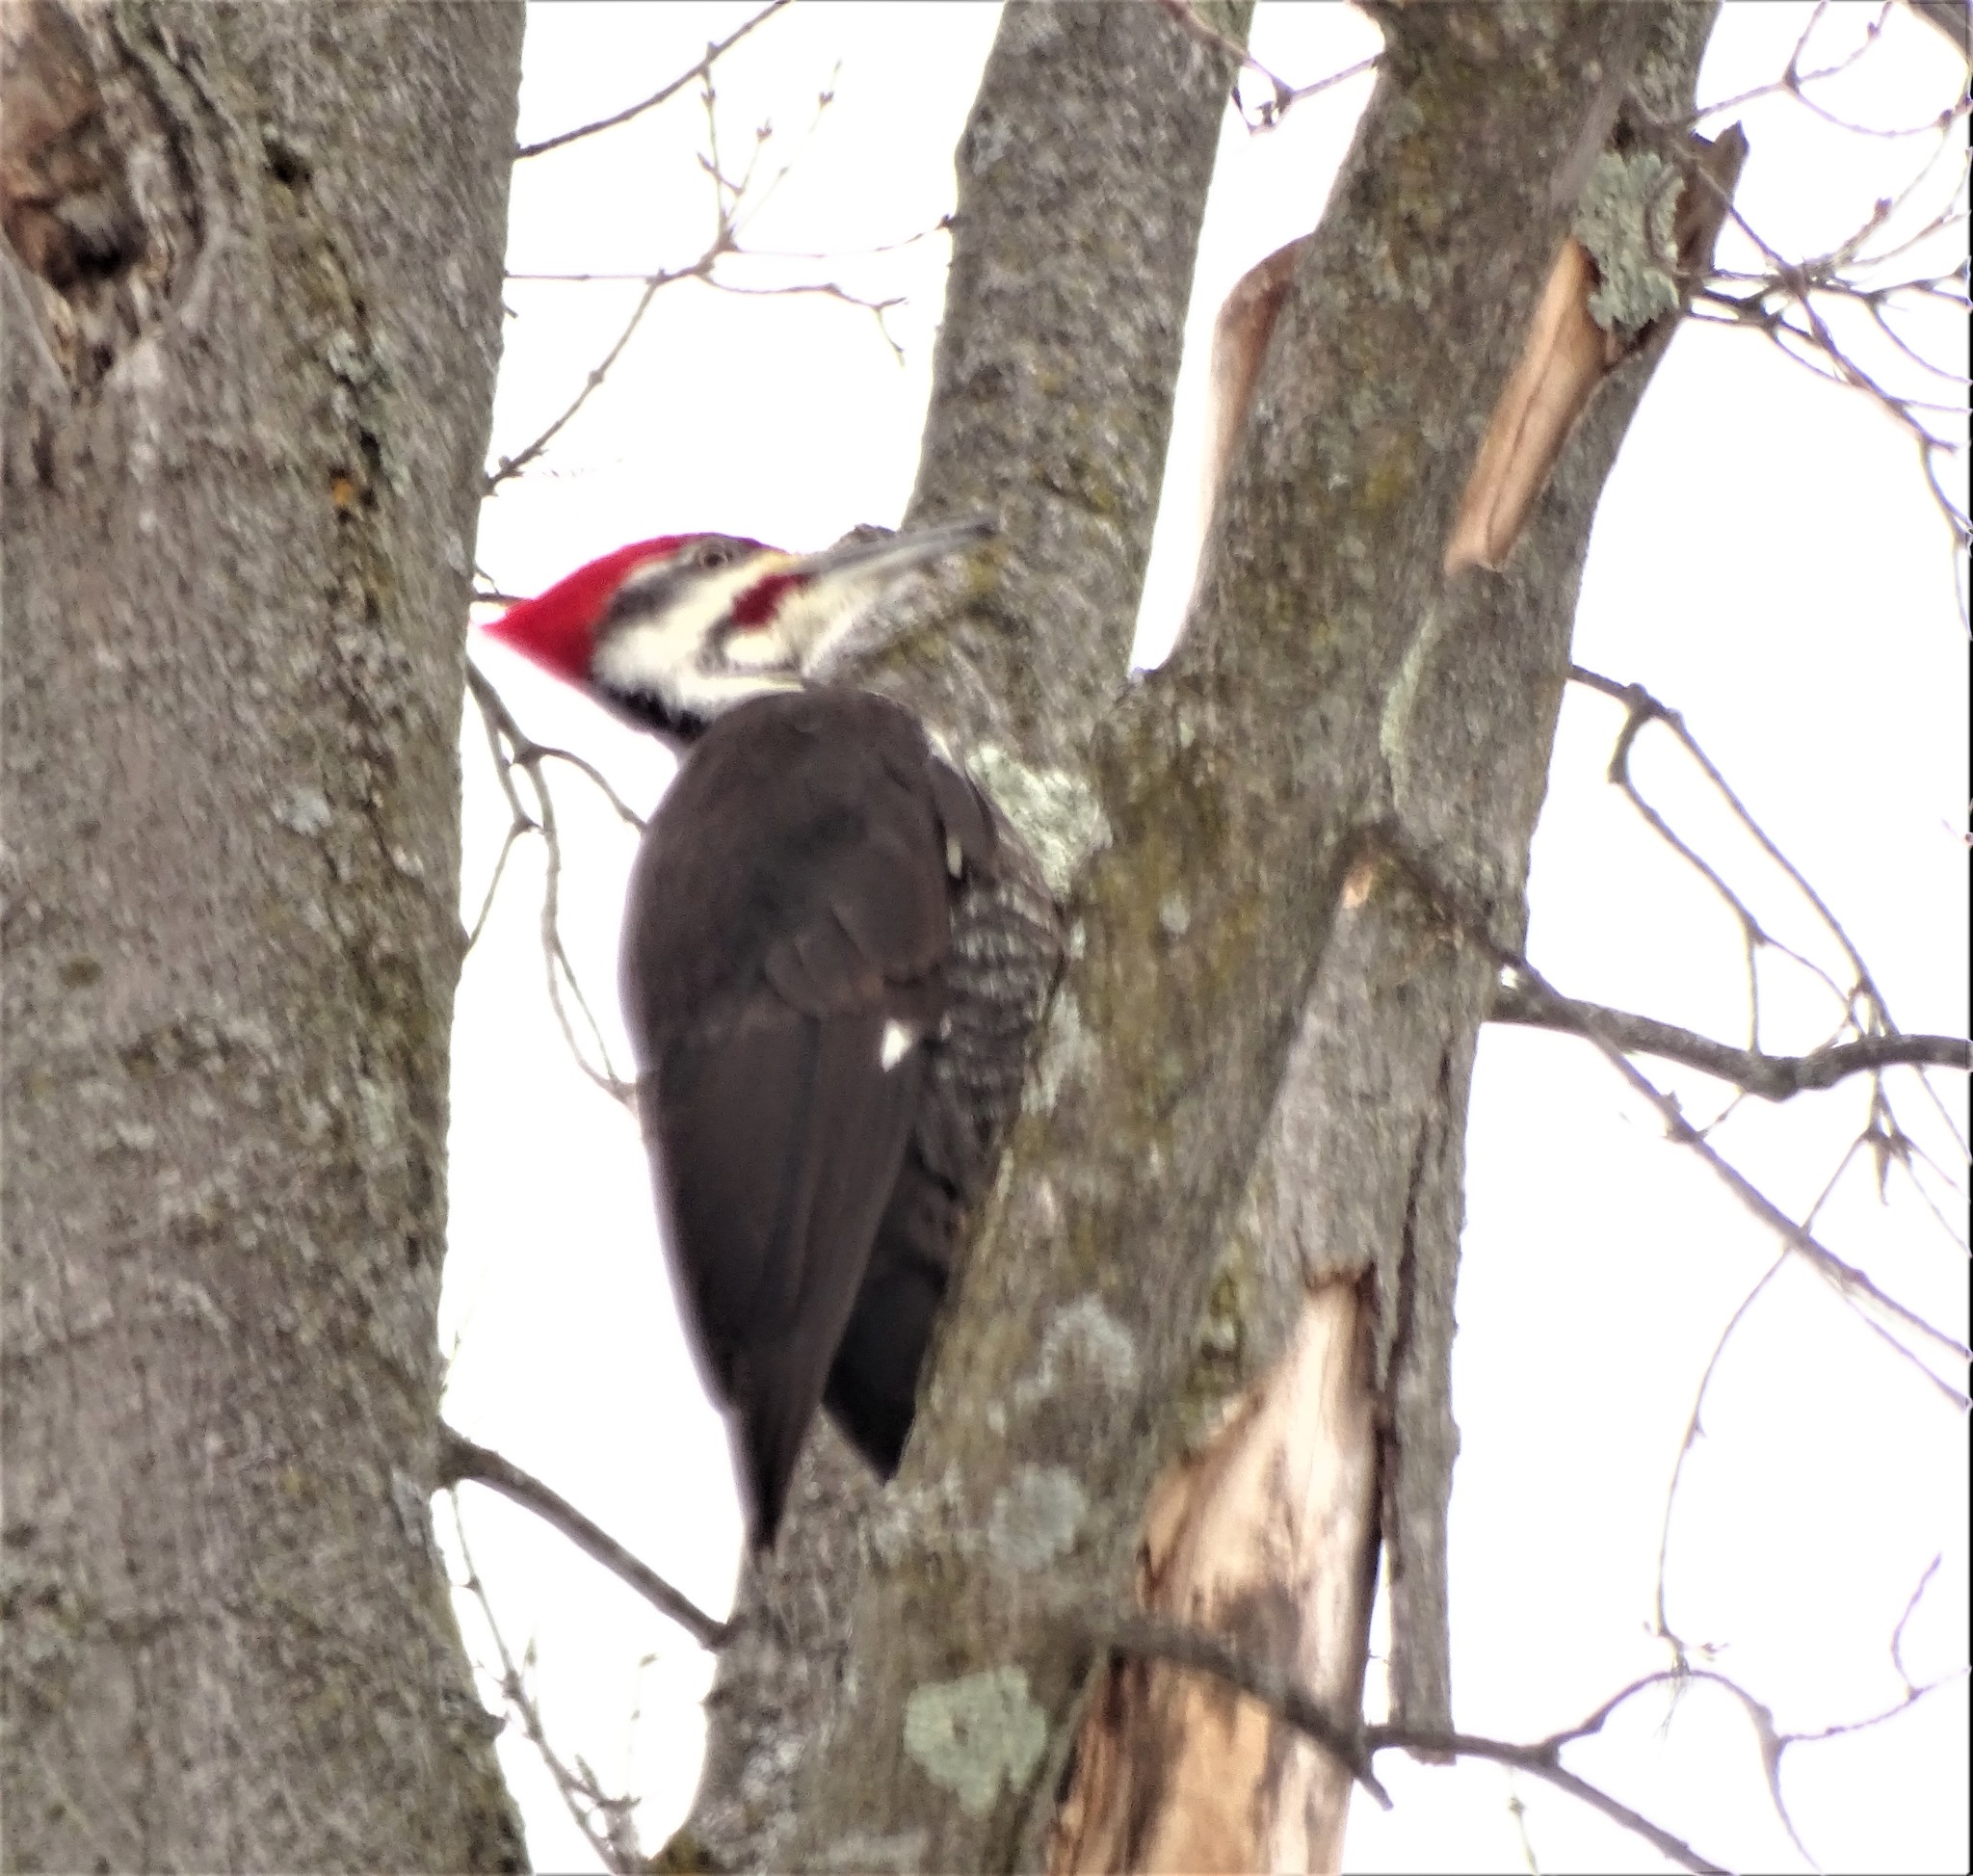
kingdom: Animalia
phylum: Chordata
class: Aves
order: Piciformes
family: Picidae
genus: Dryocopus
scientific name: Dryocopus pileatus
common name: Pileated woodpecker
